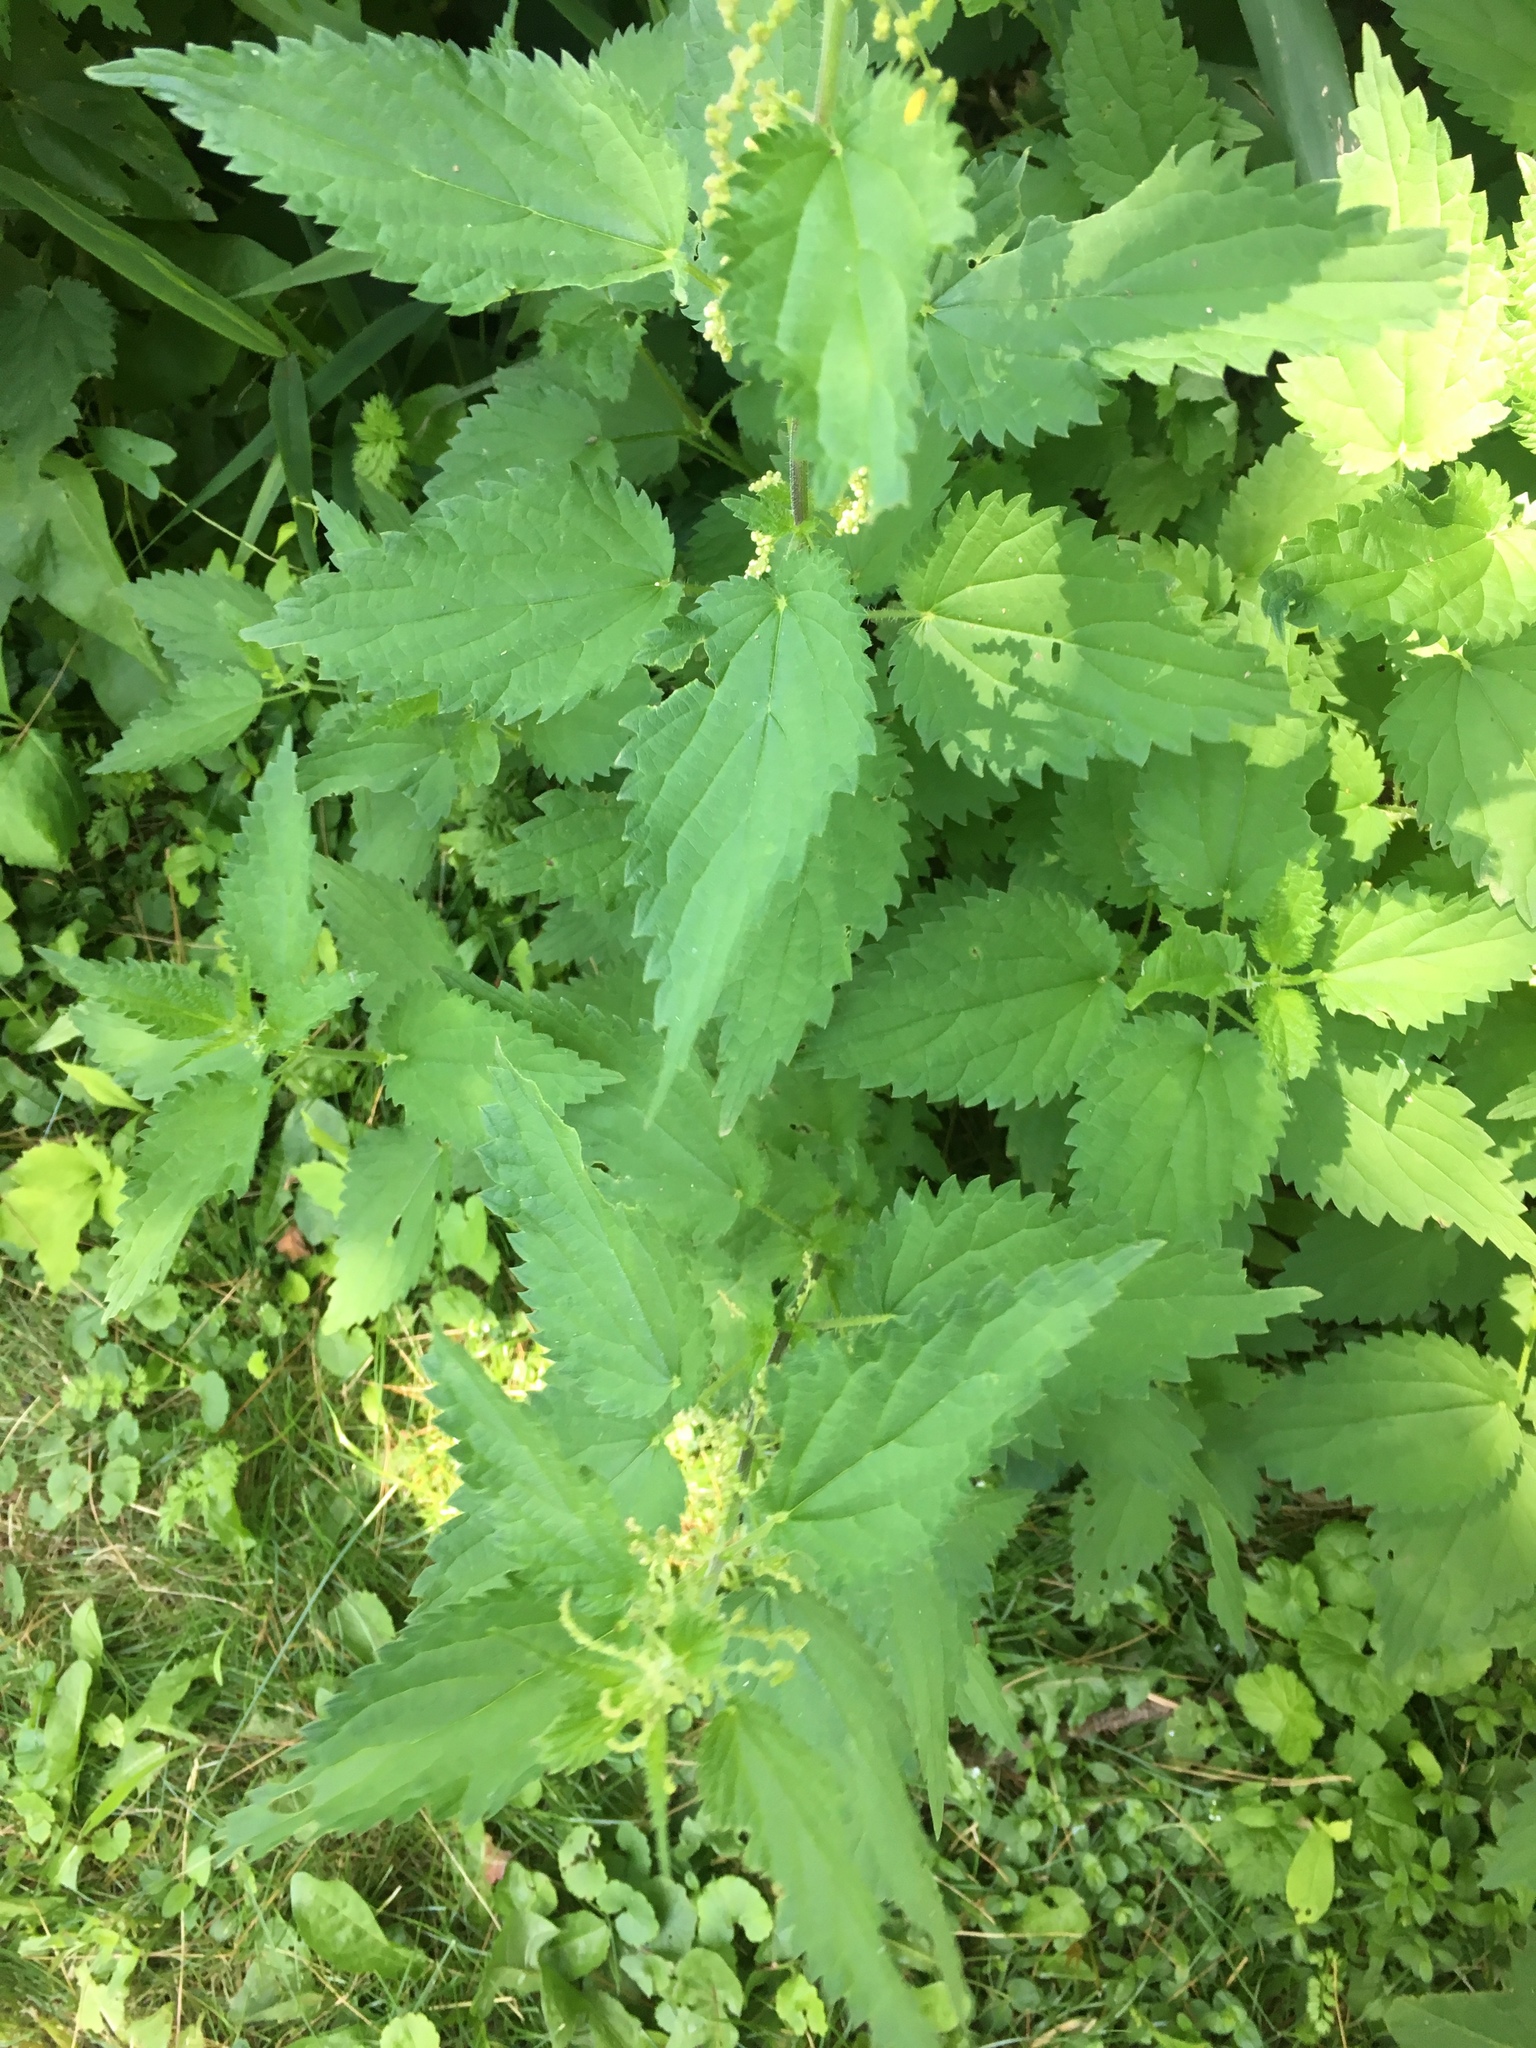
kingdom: Plantae
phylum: Tracheophyta
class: Magnoliopsida
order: Rosales
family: Urticaceae
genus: Urtica
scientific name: Urtica dioica
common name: Common nettle
